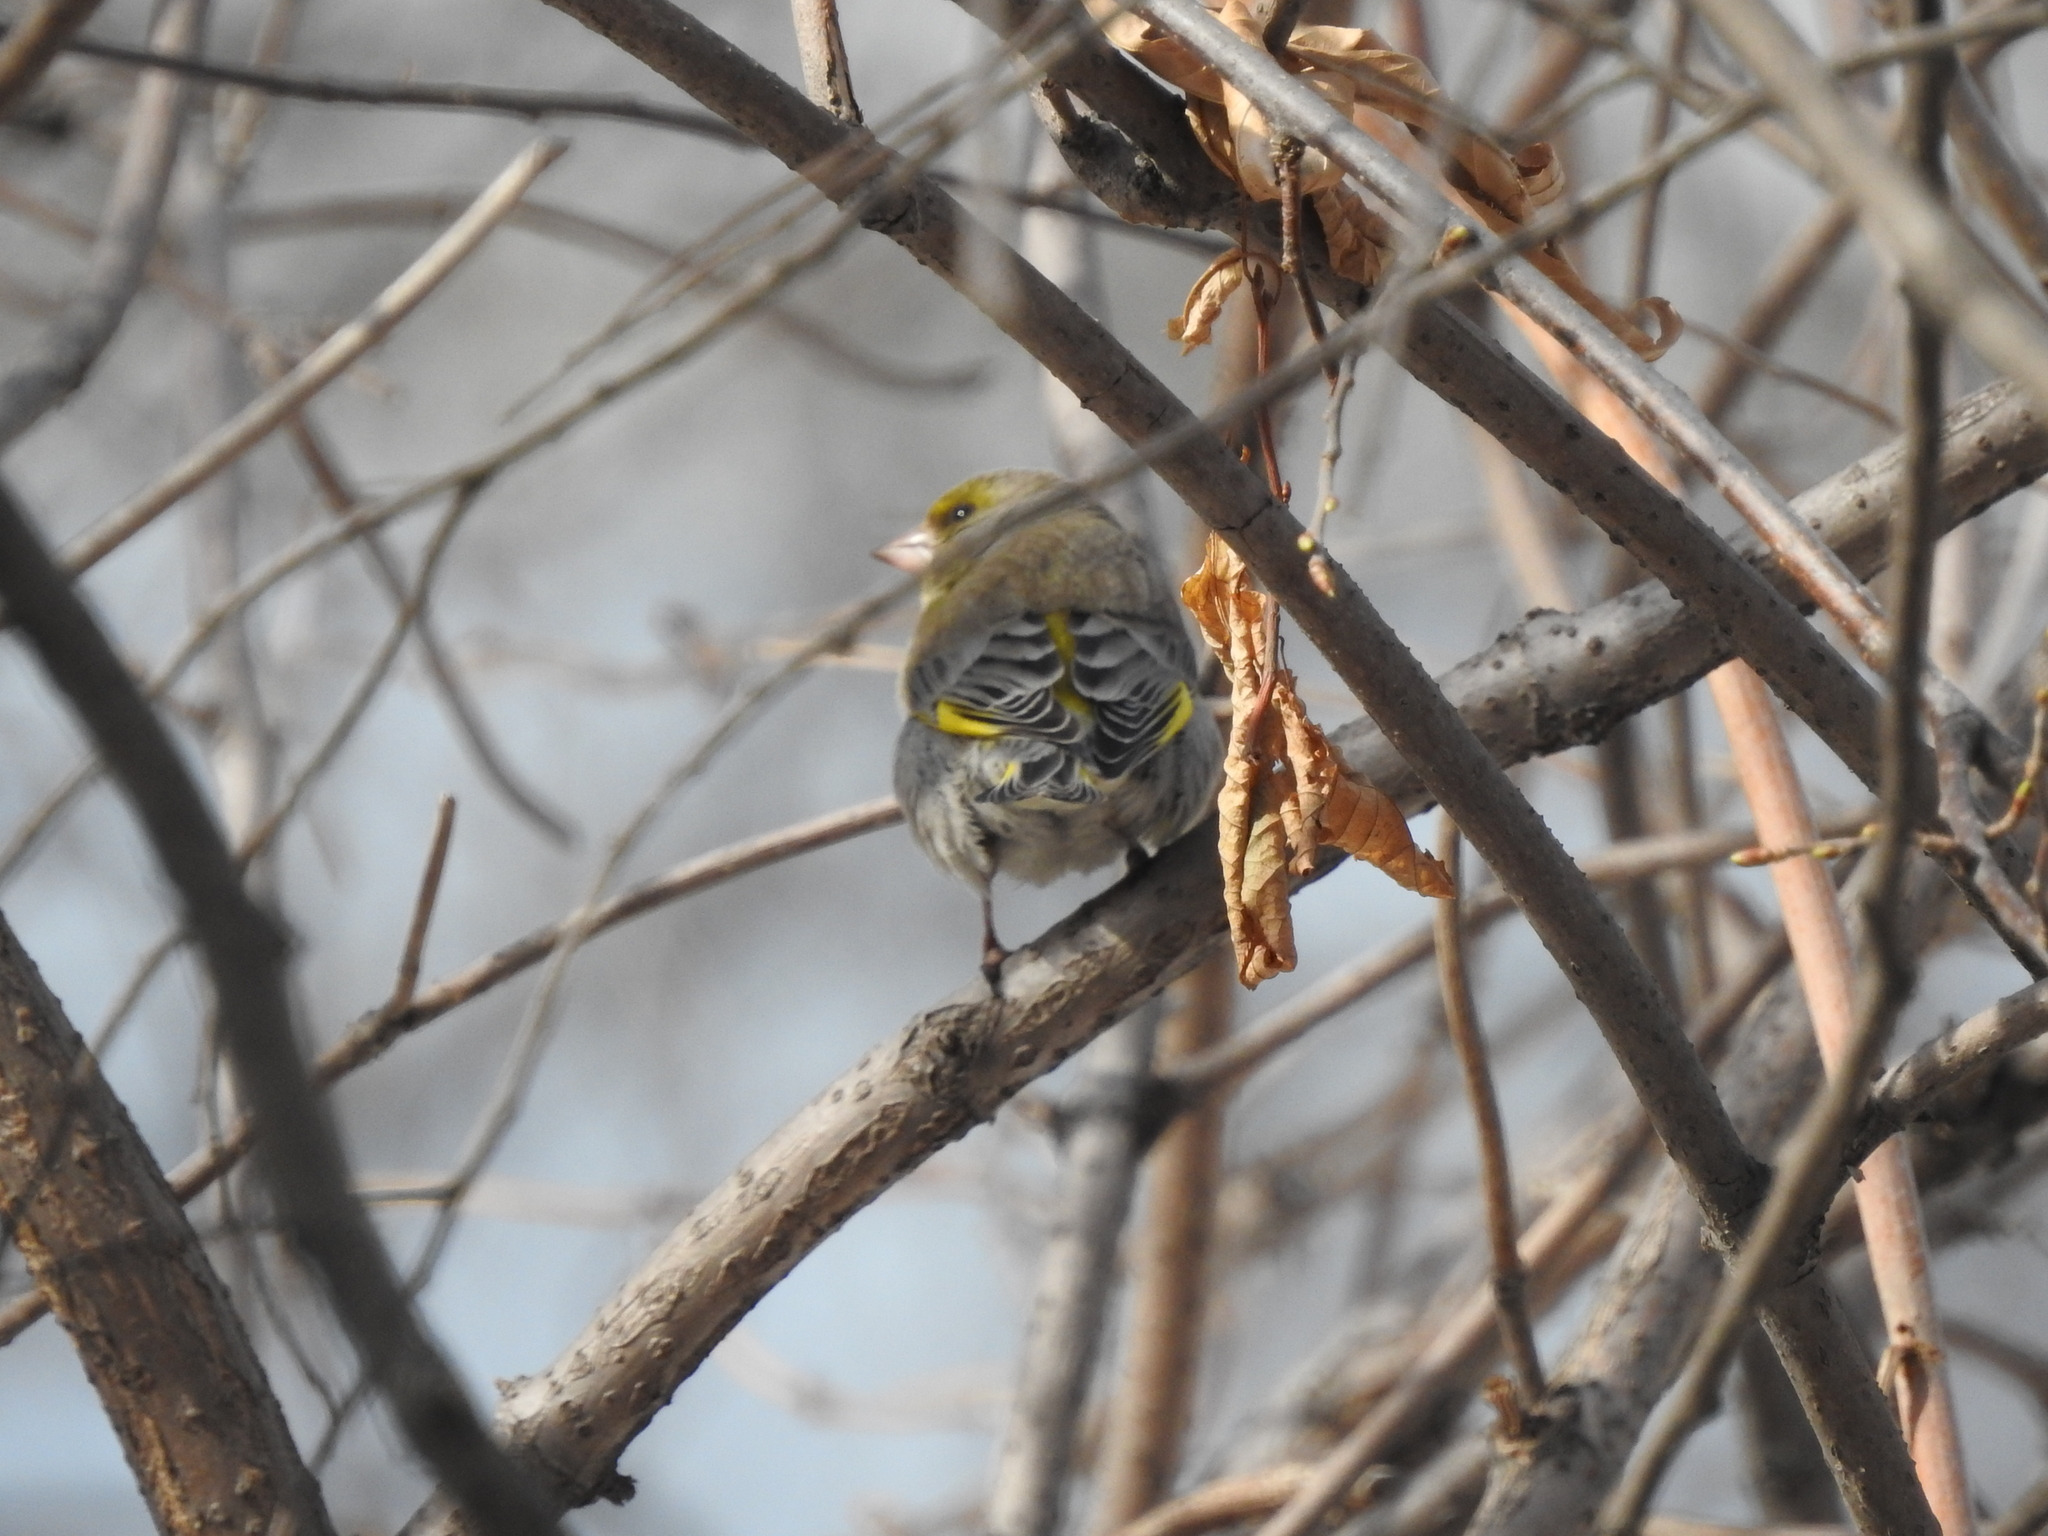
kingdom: Plantae
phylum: Tracheophyta
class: Liliopsida
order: Poales
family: Poaceae
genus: Chloris
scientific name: Chloris chloris
